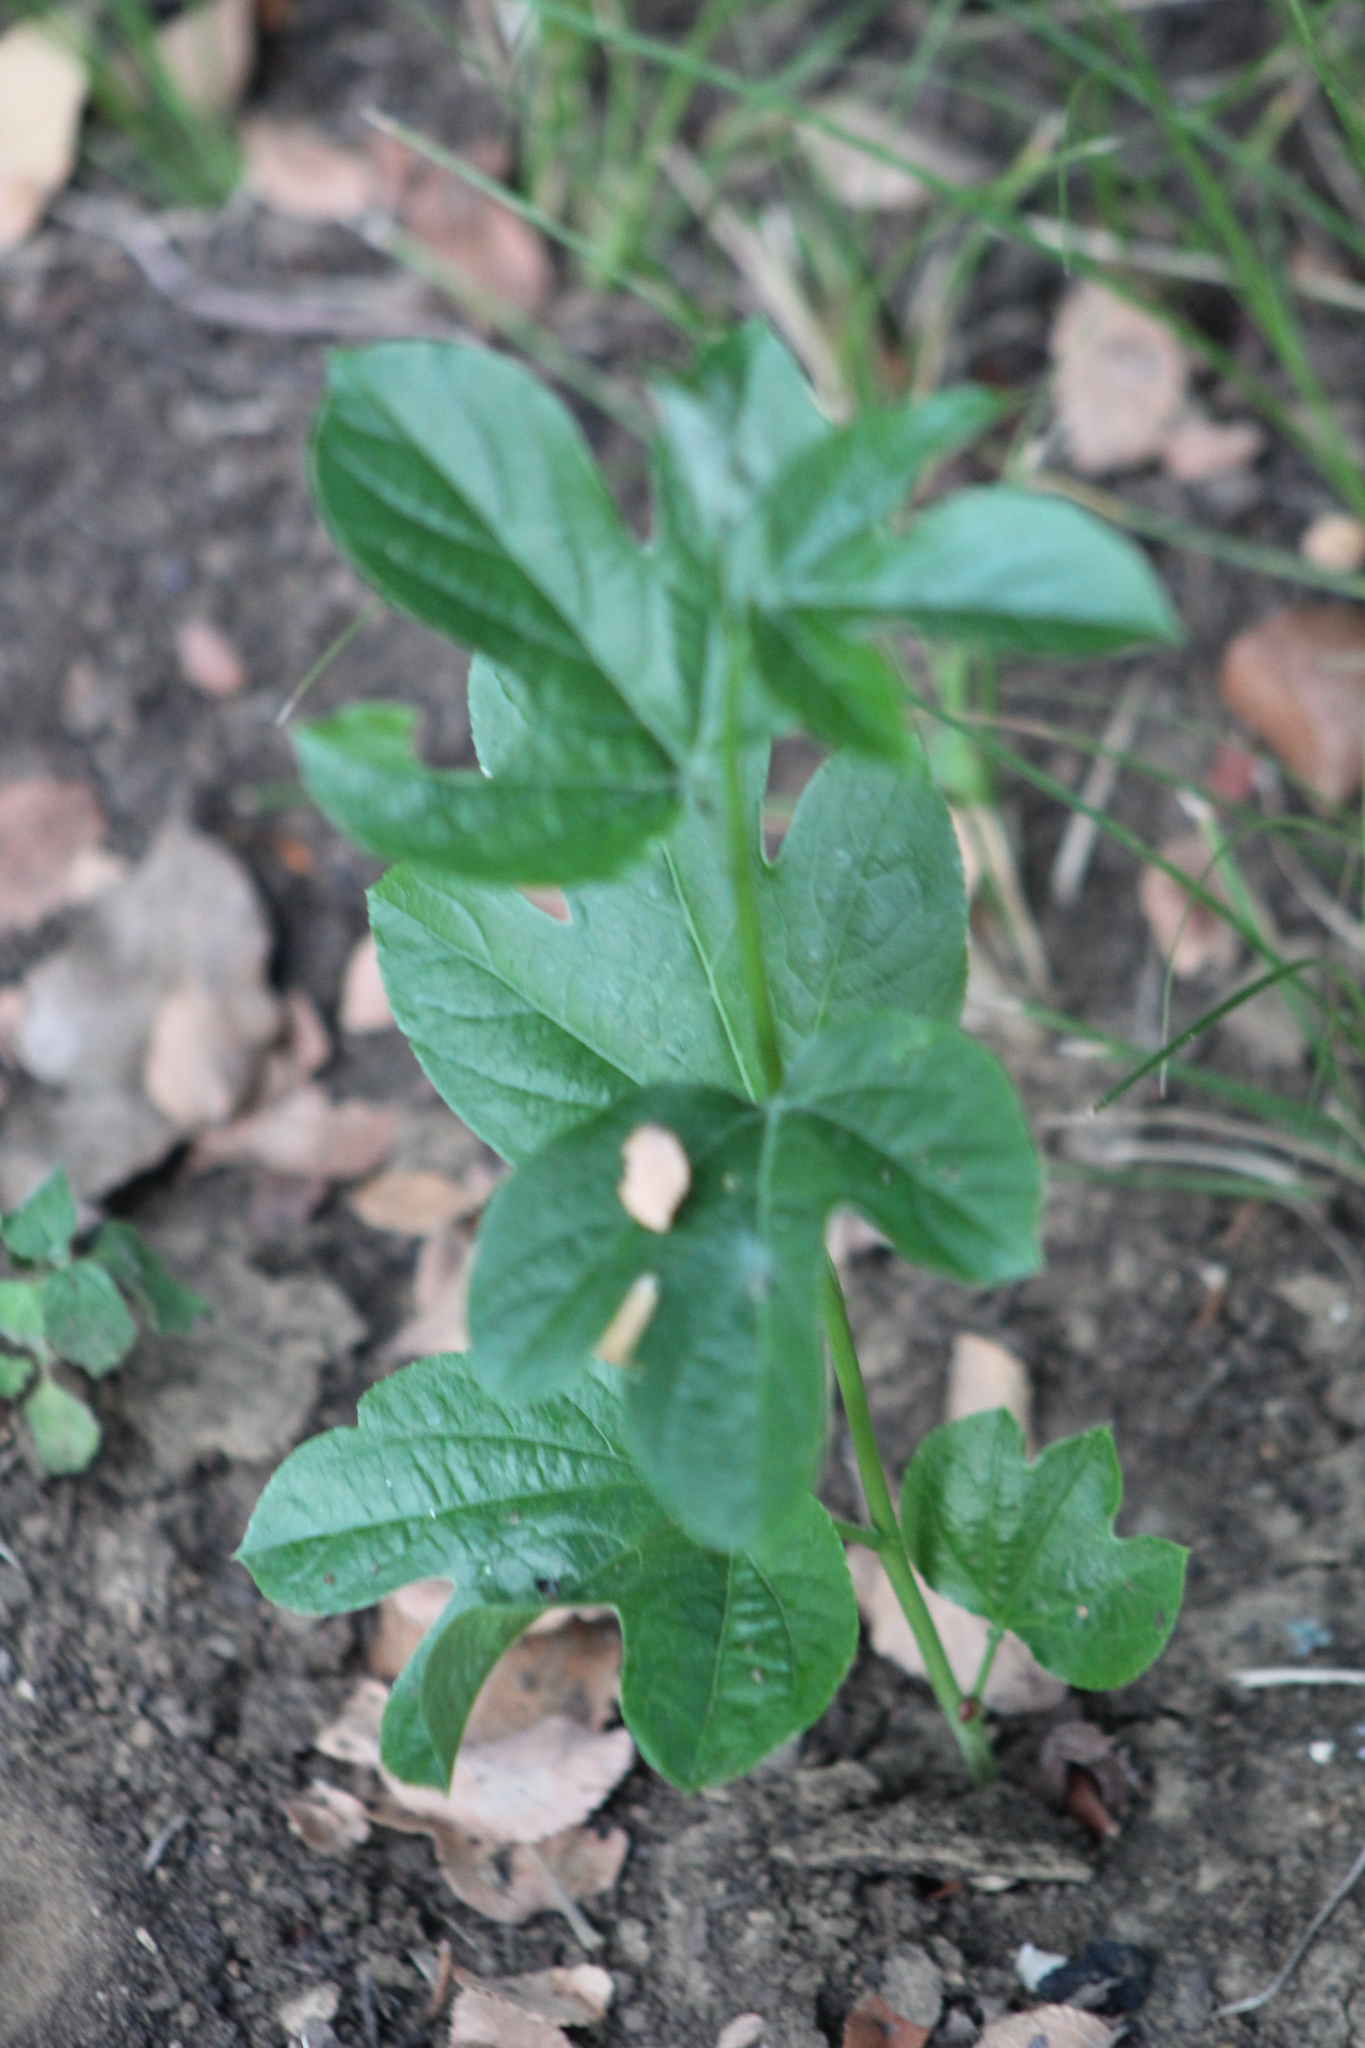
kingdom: Plantae
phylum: Tracheophyta
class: Magnoliopsida
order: Malpighiales
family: Passifloraceae
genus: Passiflora
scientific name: Passiflora incarnata
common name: Apricot-vine
